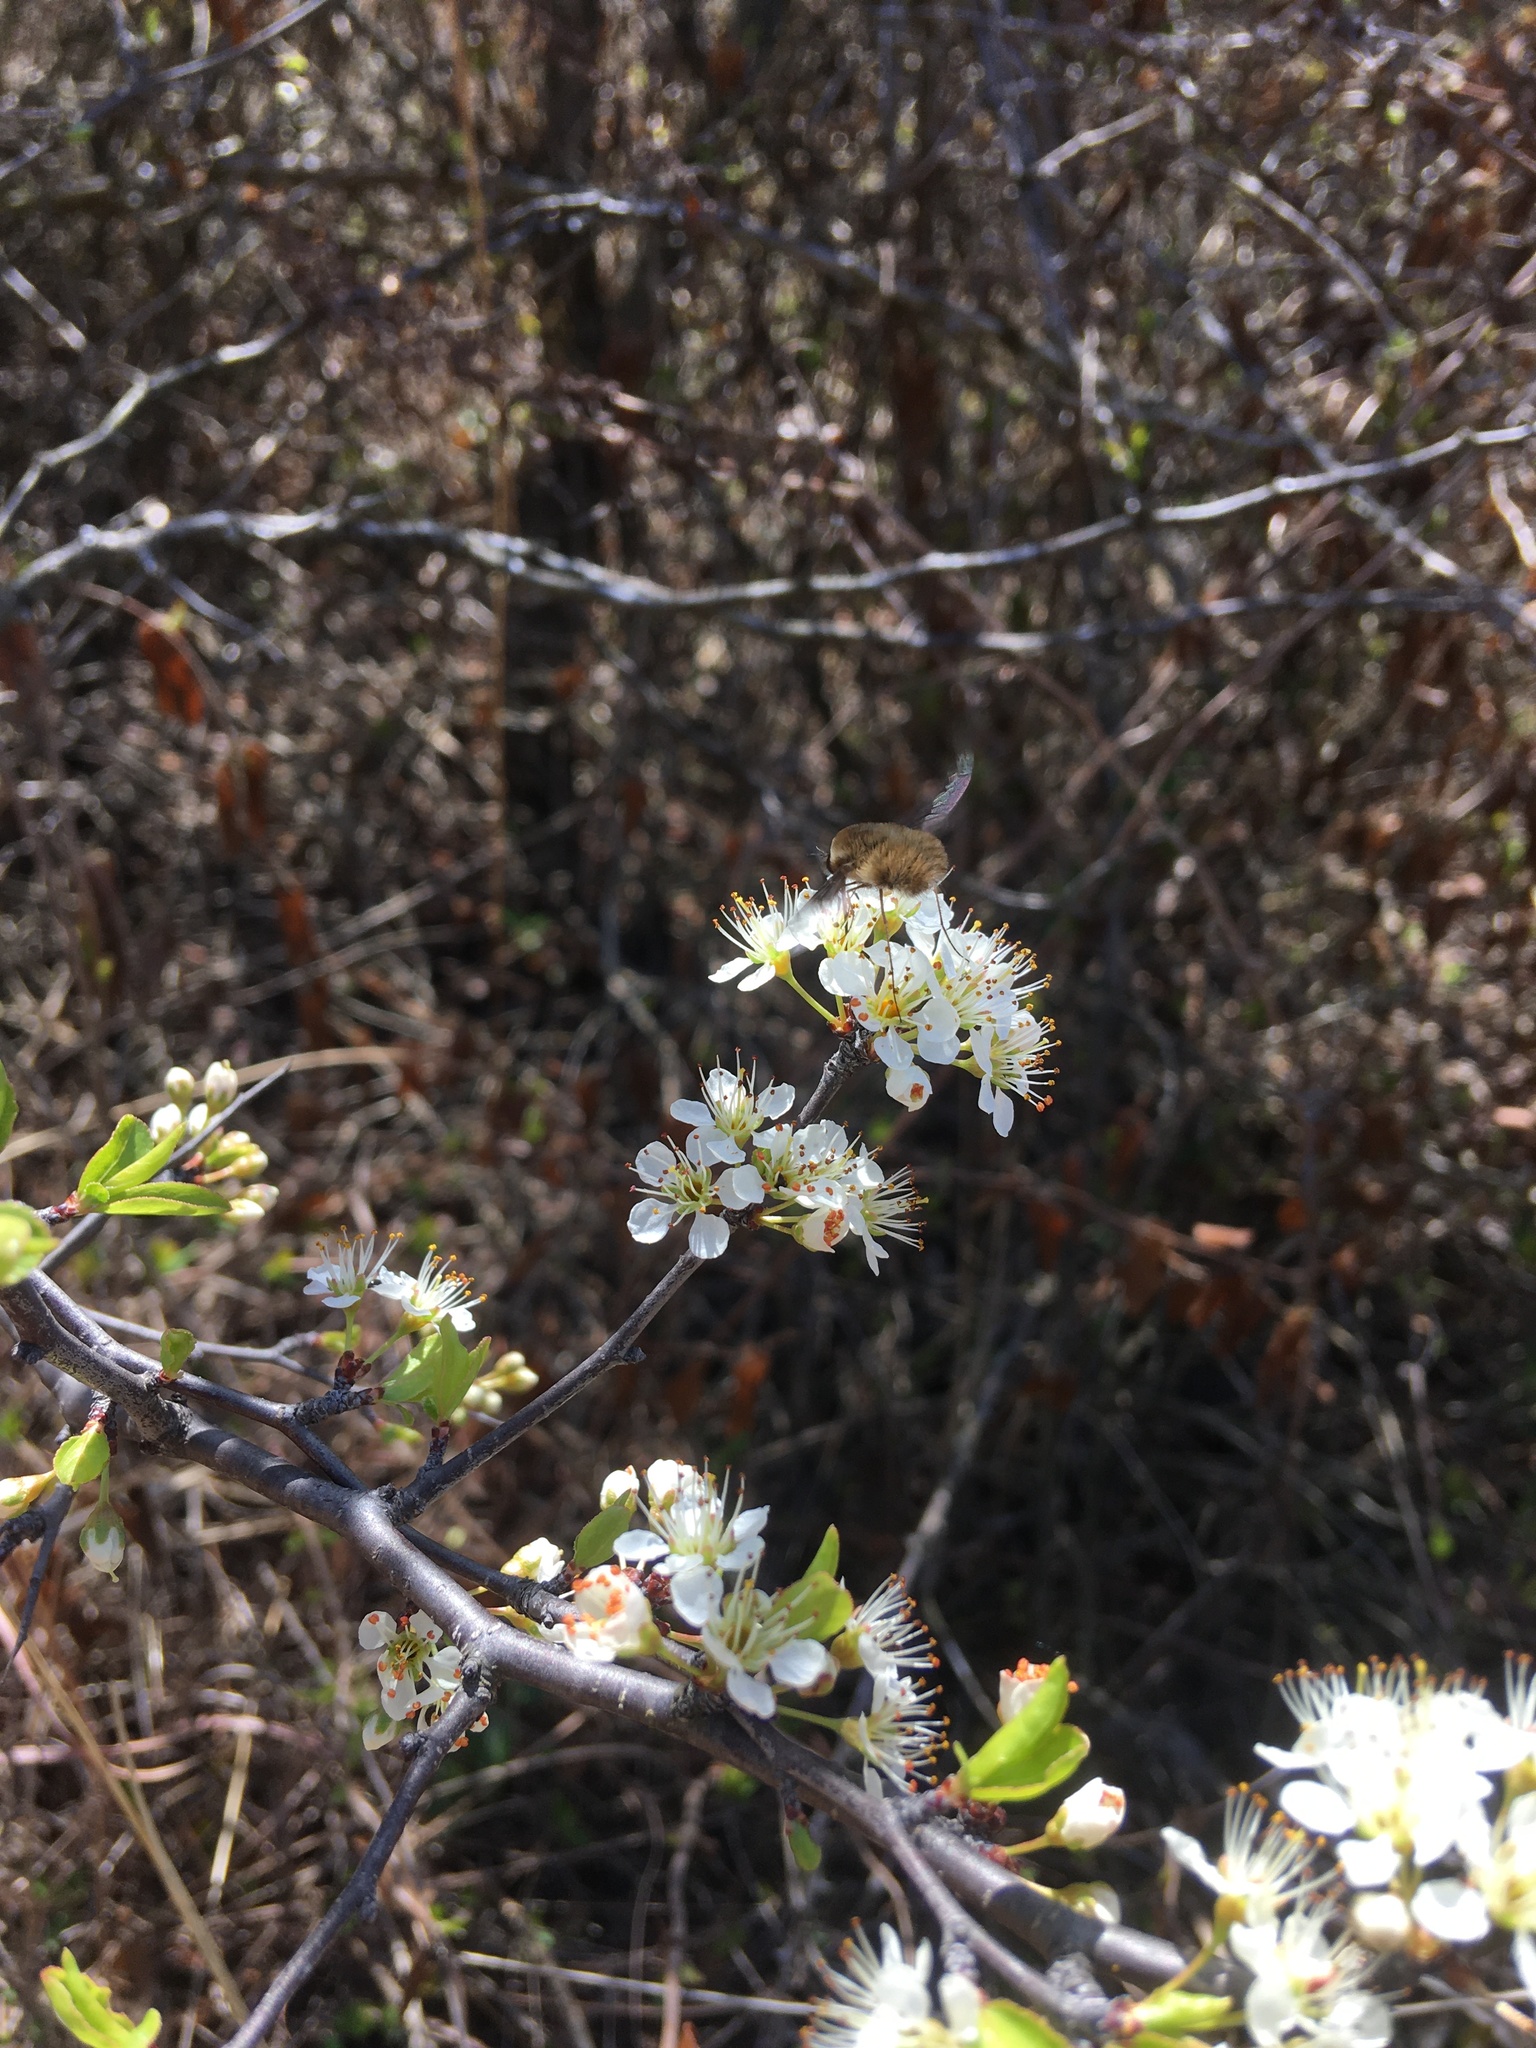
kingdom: Animalia
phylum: Arthropoda
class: Insecta
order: Diptera
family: Bombyliidae
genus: Bombylius
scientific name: Bombylius major
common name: Bee fly
